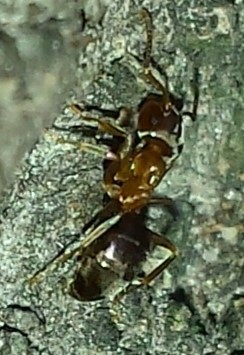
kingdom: Animalia
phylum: Arthropoda
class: Insecta
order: Hymenoptera
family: Formicidae
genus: Lasius
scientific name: Lasius brunneus
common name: Brown ant
